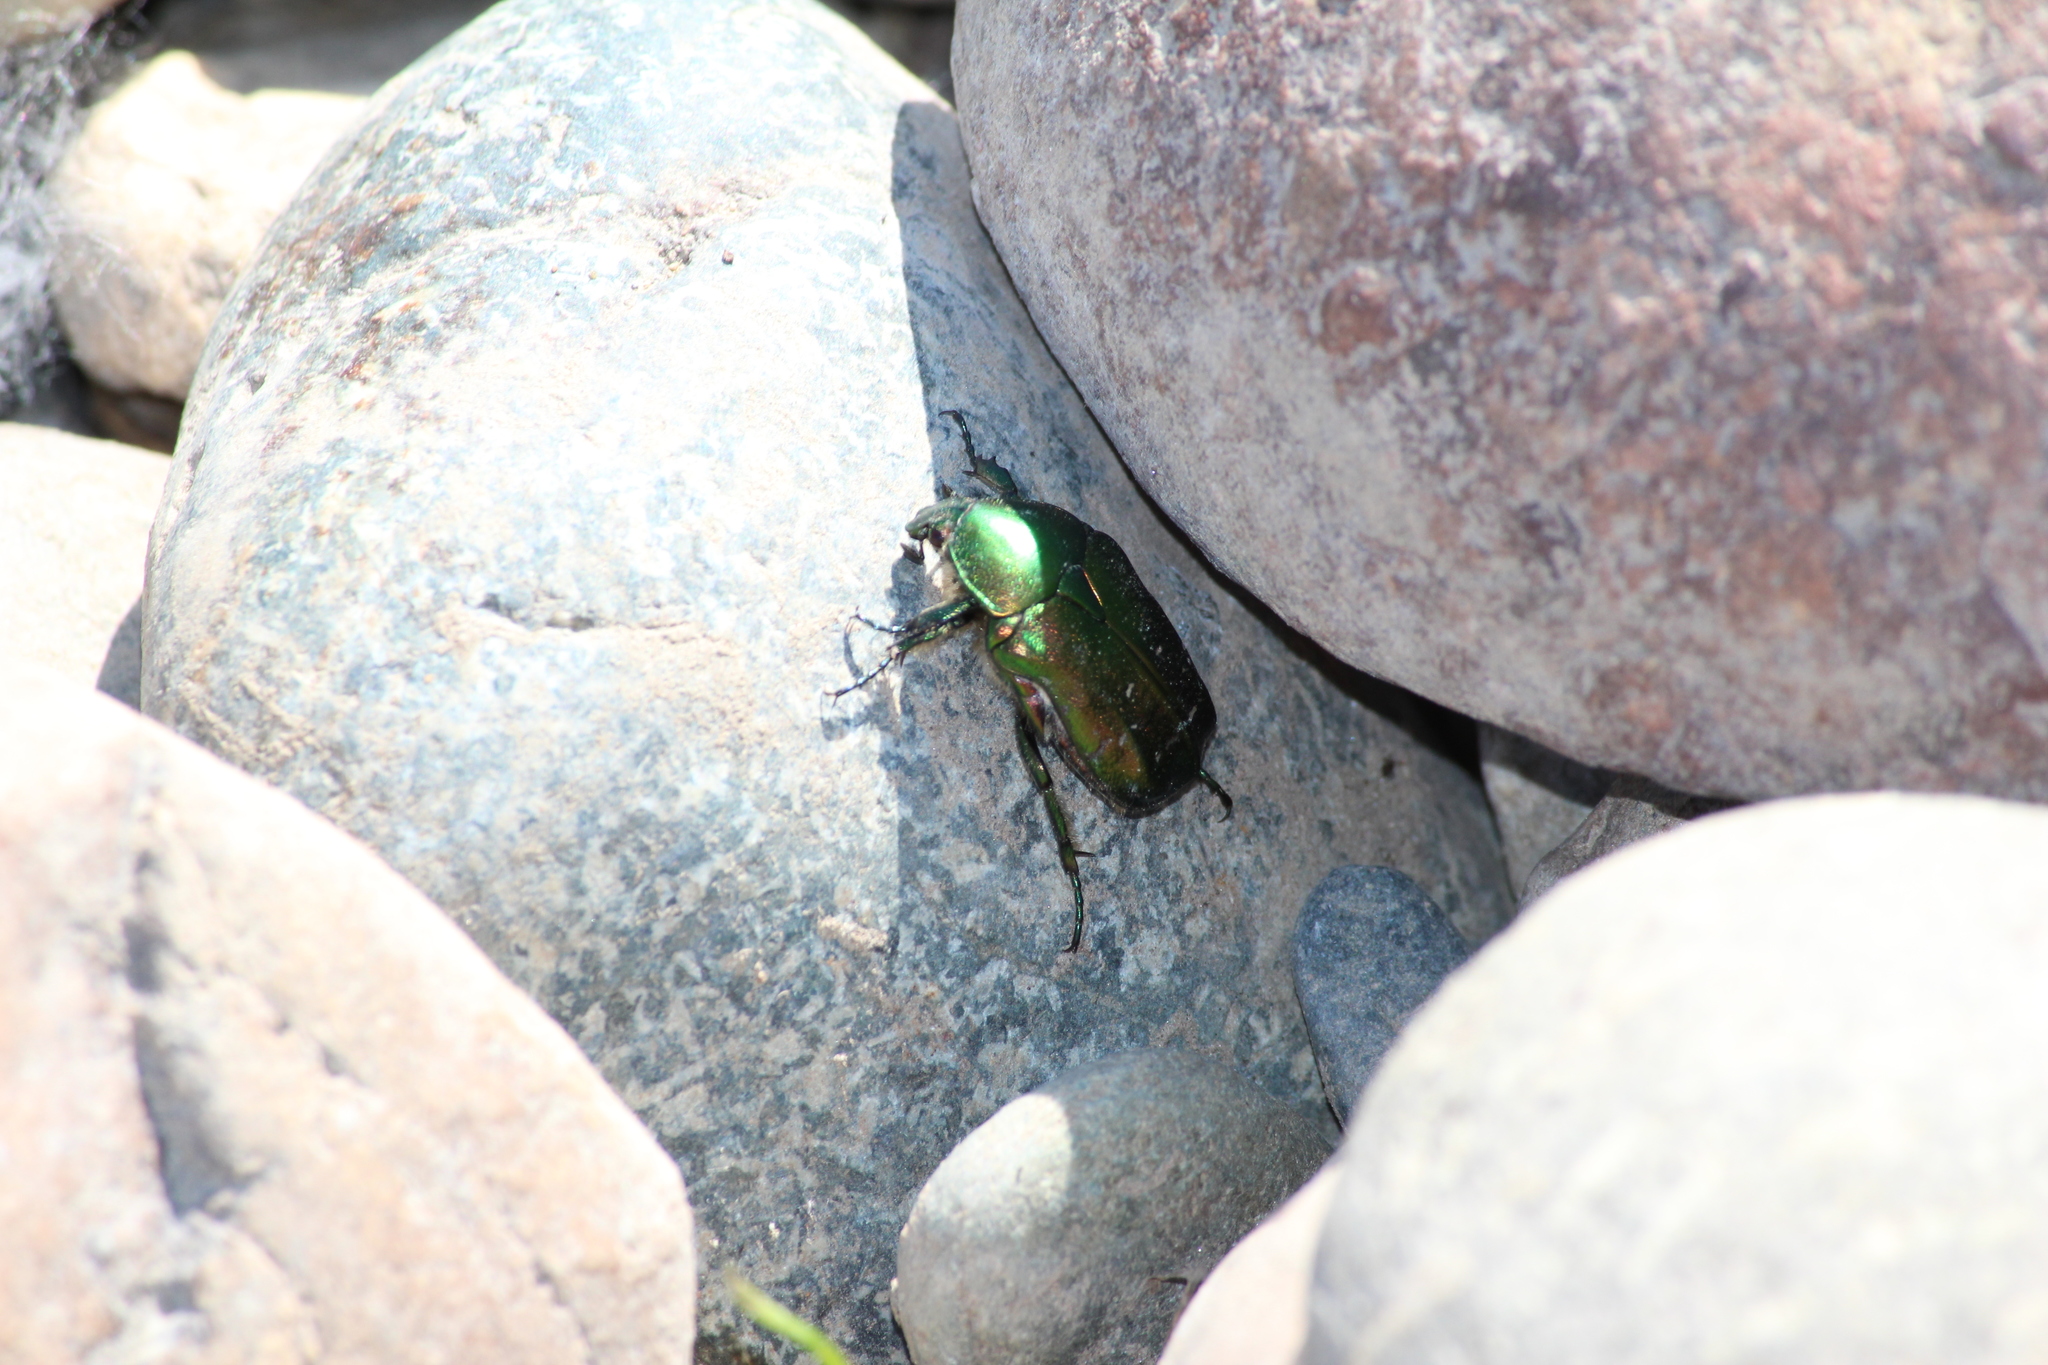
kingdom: Animalia
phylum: Arthropoda
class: Insecta
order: Coleoptera
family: Scarabaeidae
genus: Cetonia
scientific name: Cetonia aurata
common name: Rose chafer
